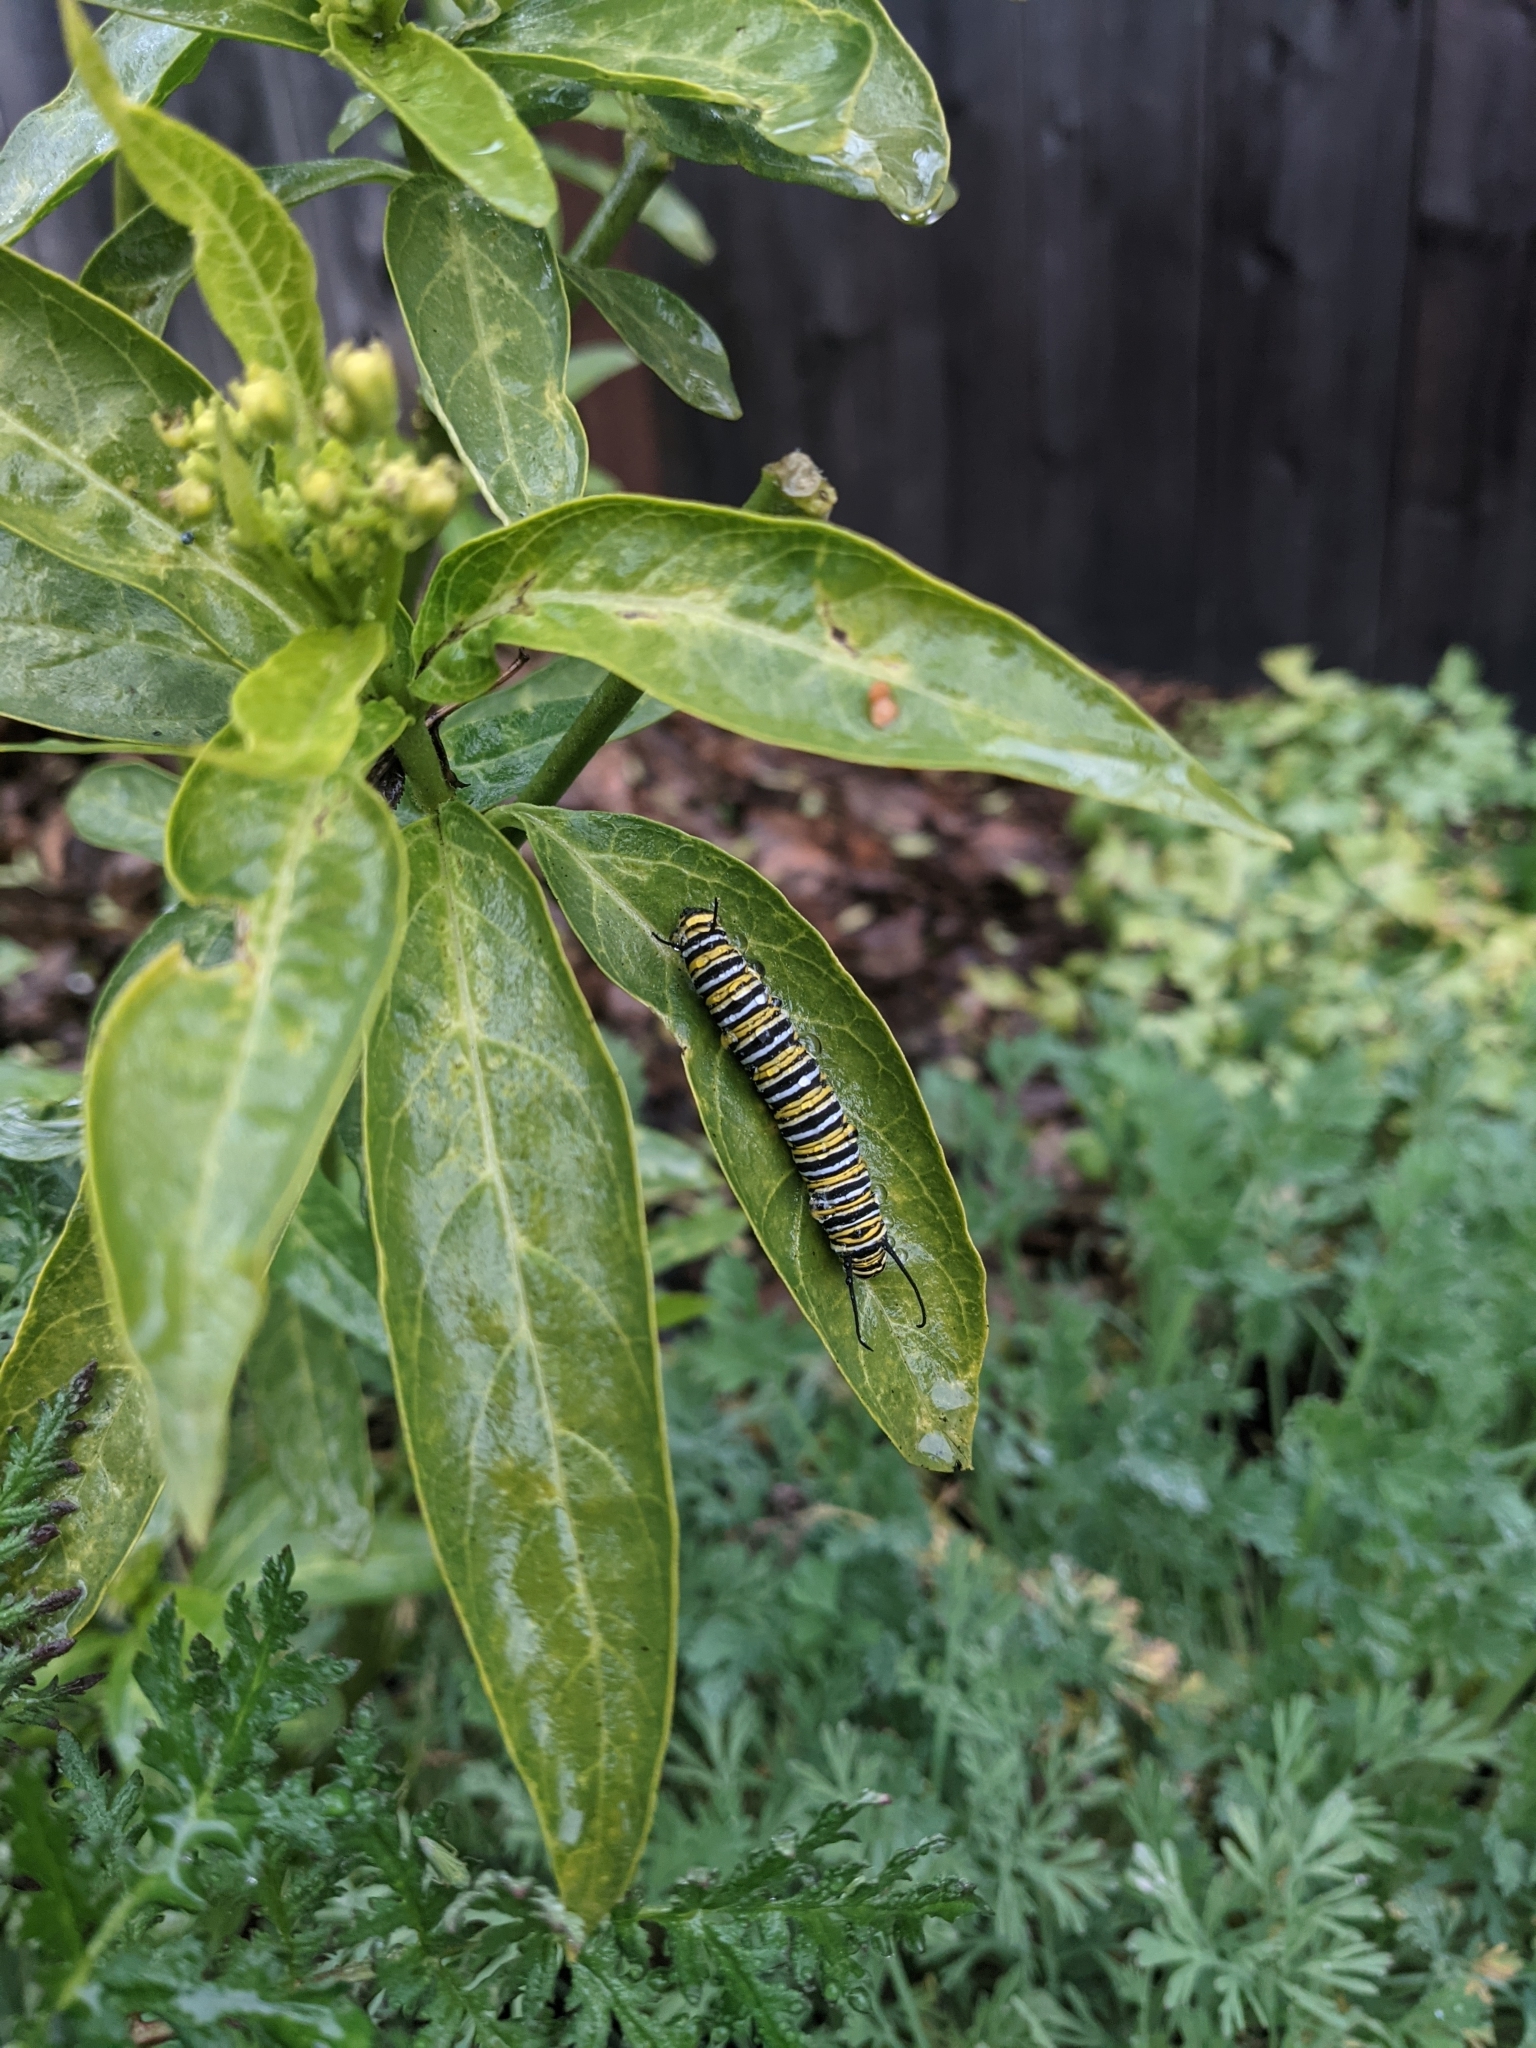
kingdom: Animalia
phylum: Arthropoda
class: Insecta
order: Lepidoptera
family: Nymphalidae
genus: Danaus
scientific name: Danaus plexippus
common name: Monarch
